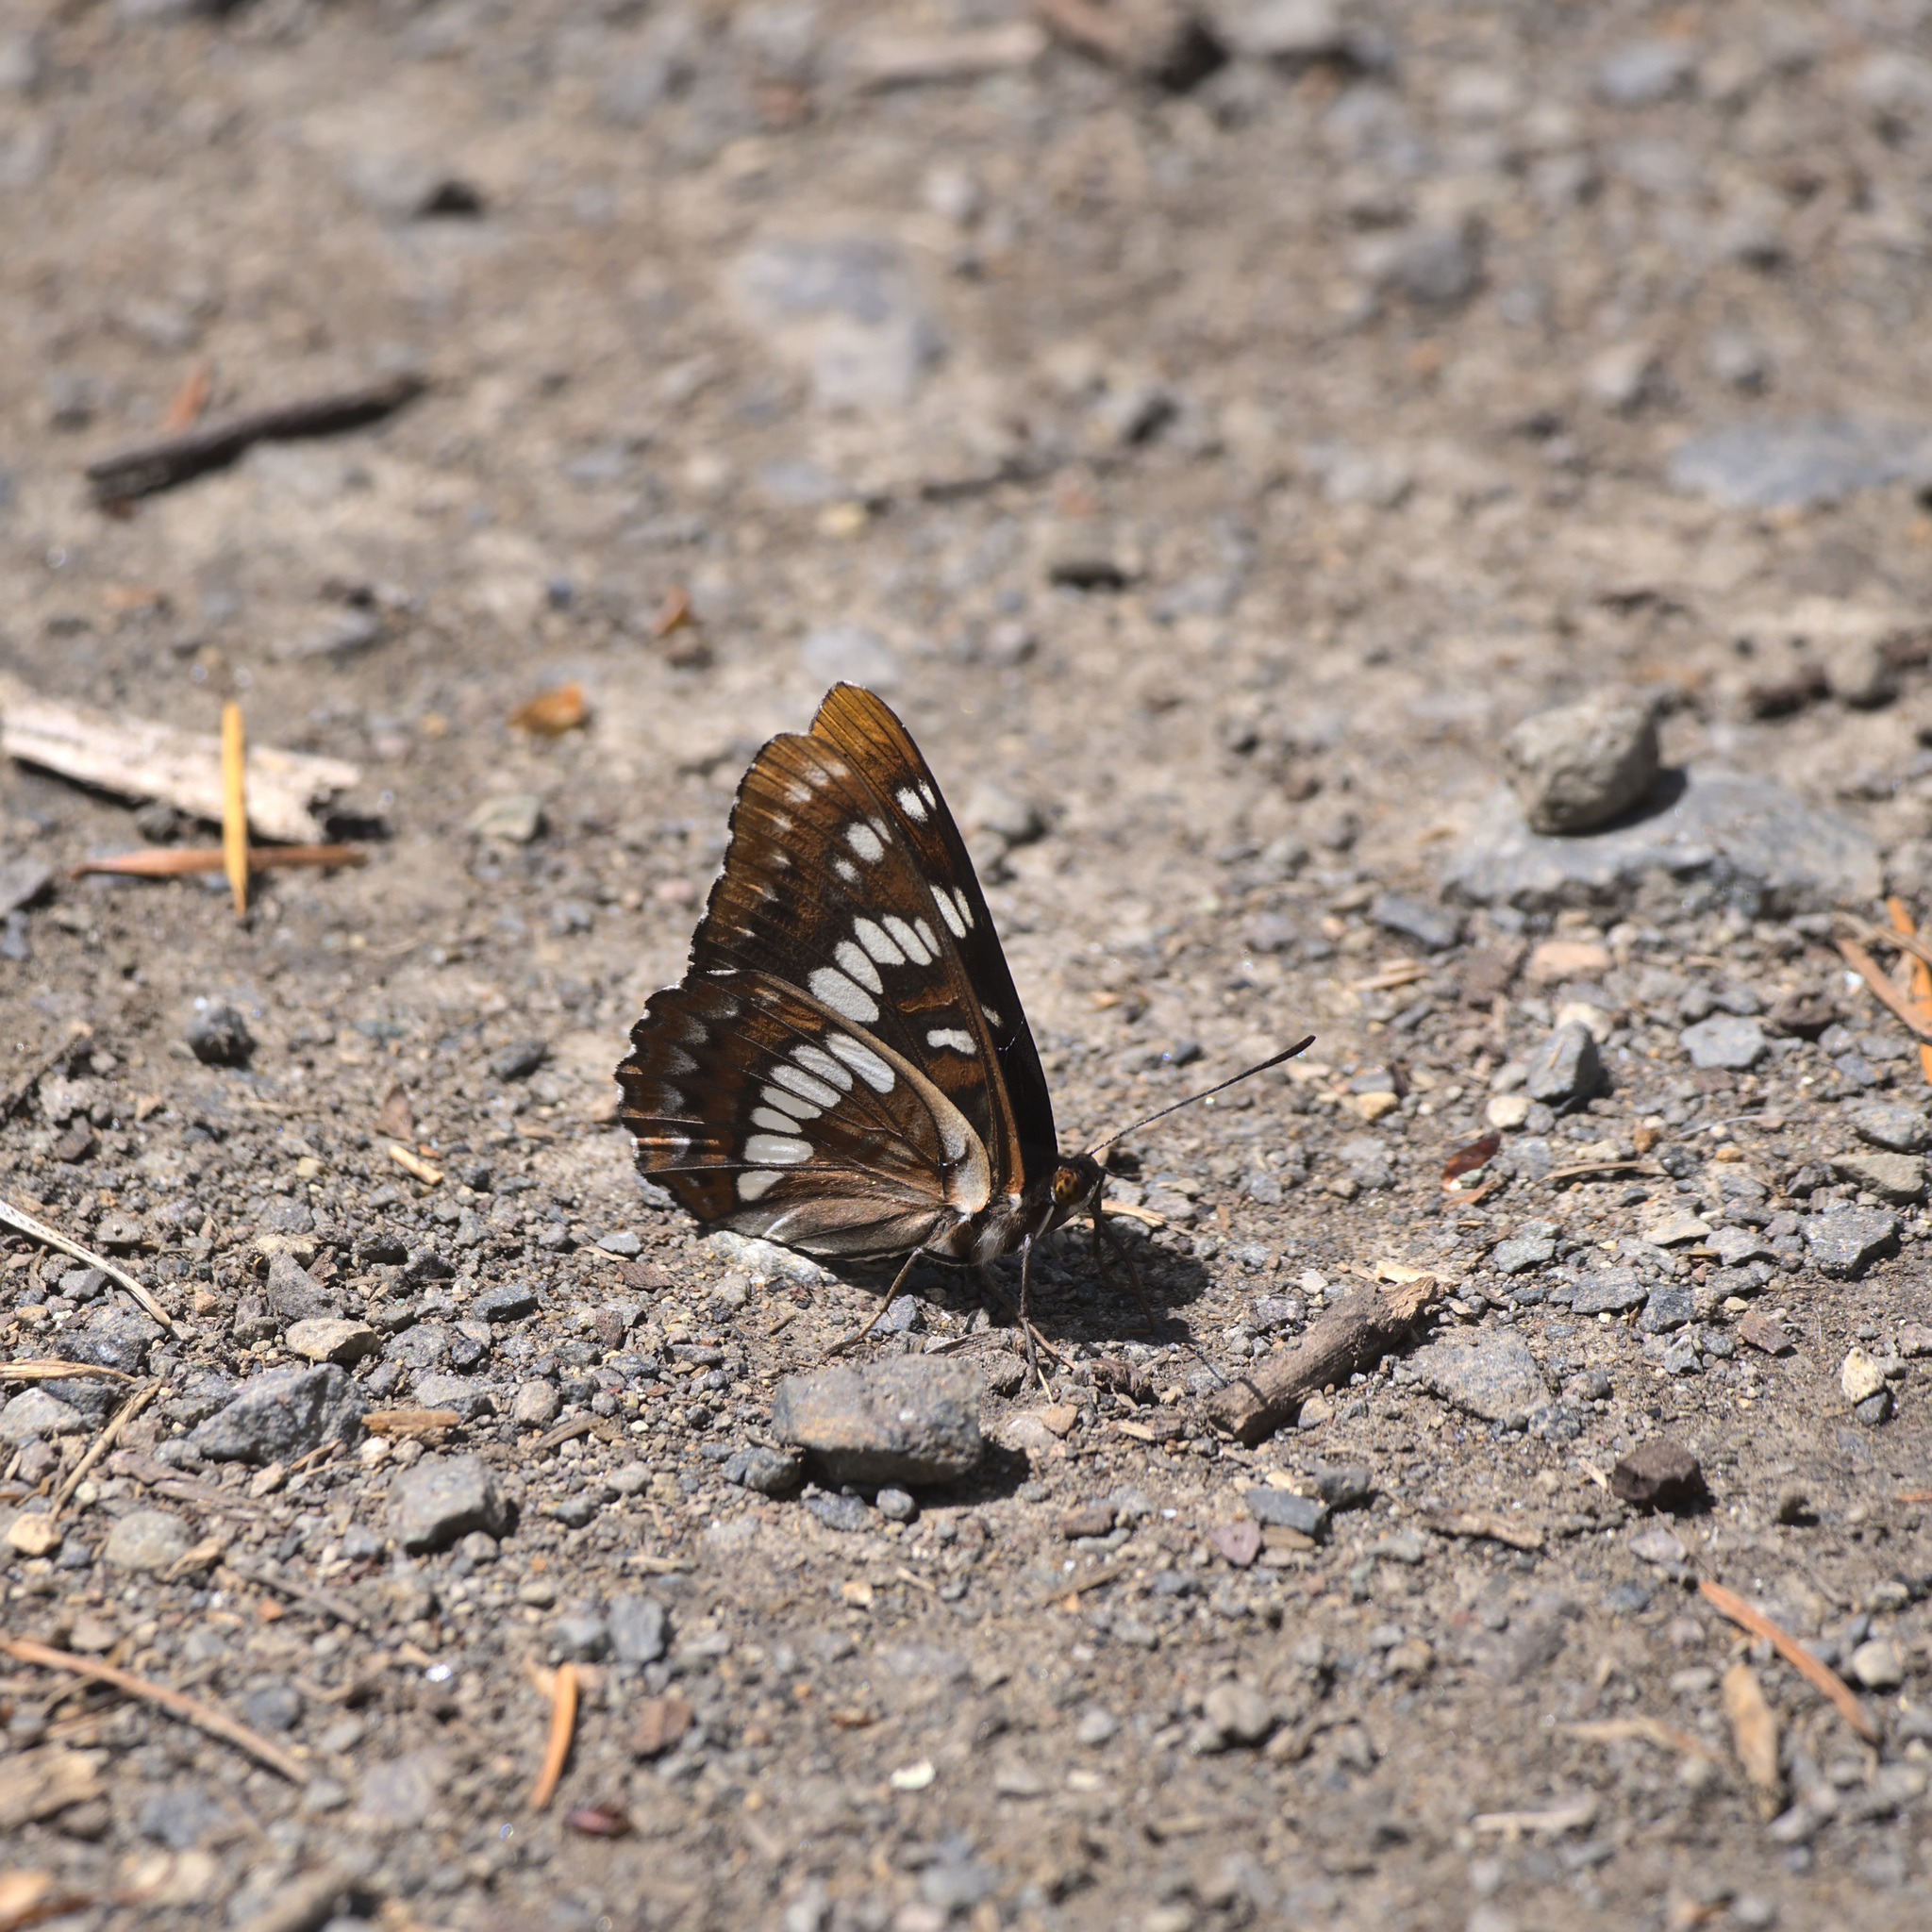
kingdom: Animalia
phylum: Arthropoda
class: Insecta
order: Lepidoptera
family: Nymphalidae
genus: Limenitis
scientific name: Limenitis lorquini
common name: Lorquin's admiral
